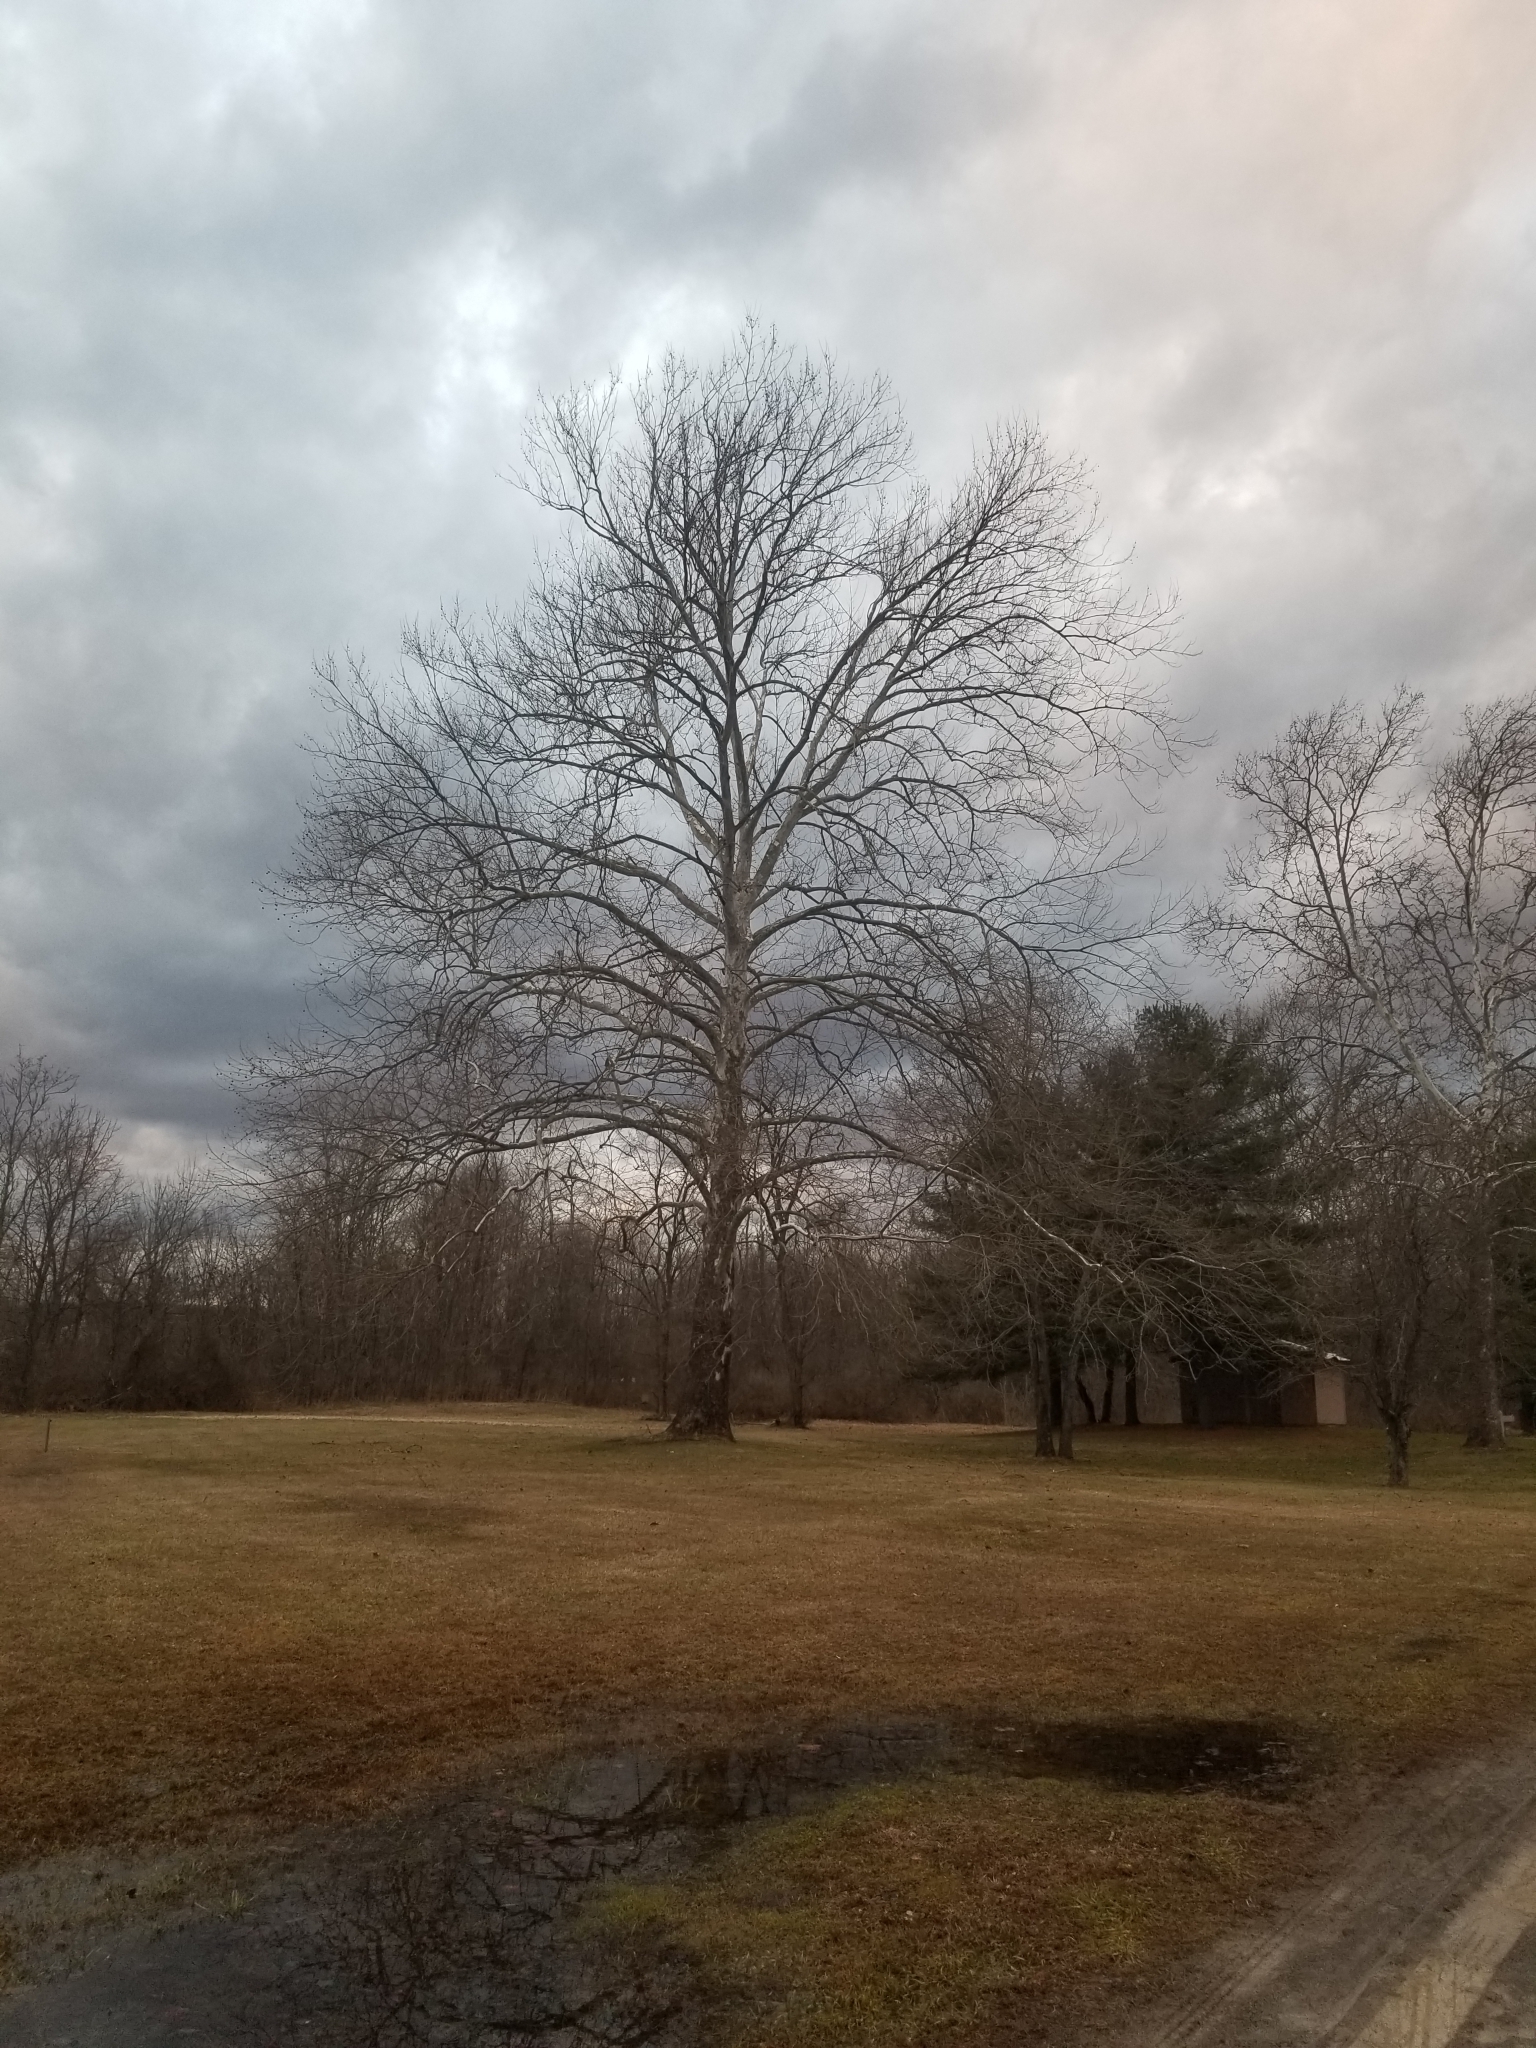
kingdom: Plantae
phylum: Tracheophyta
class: Magnoliopsida
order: Proteales
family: Platanaceae
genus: Platanus
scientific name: Platanus occidentalis
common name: American sycamore
